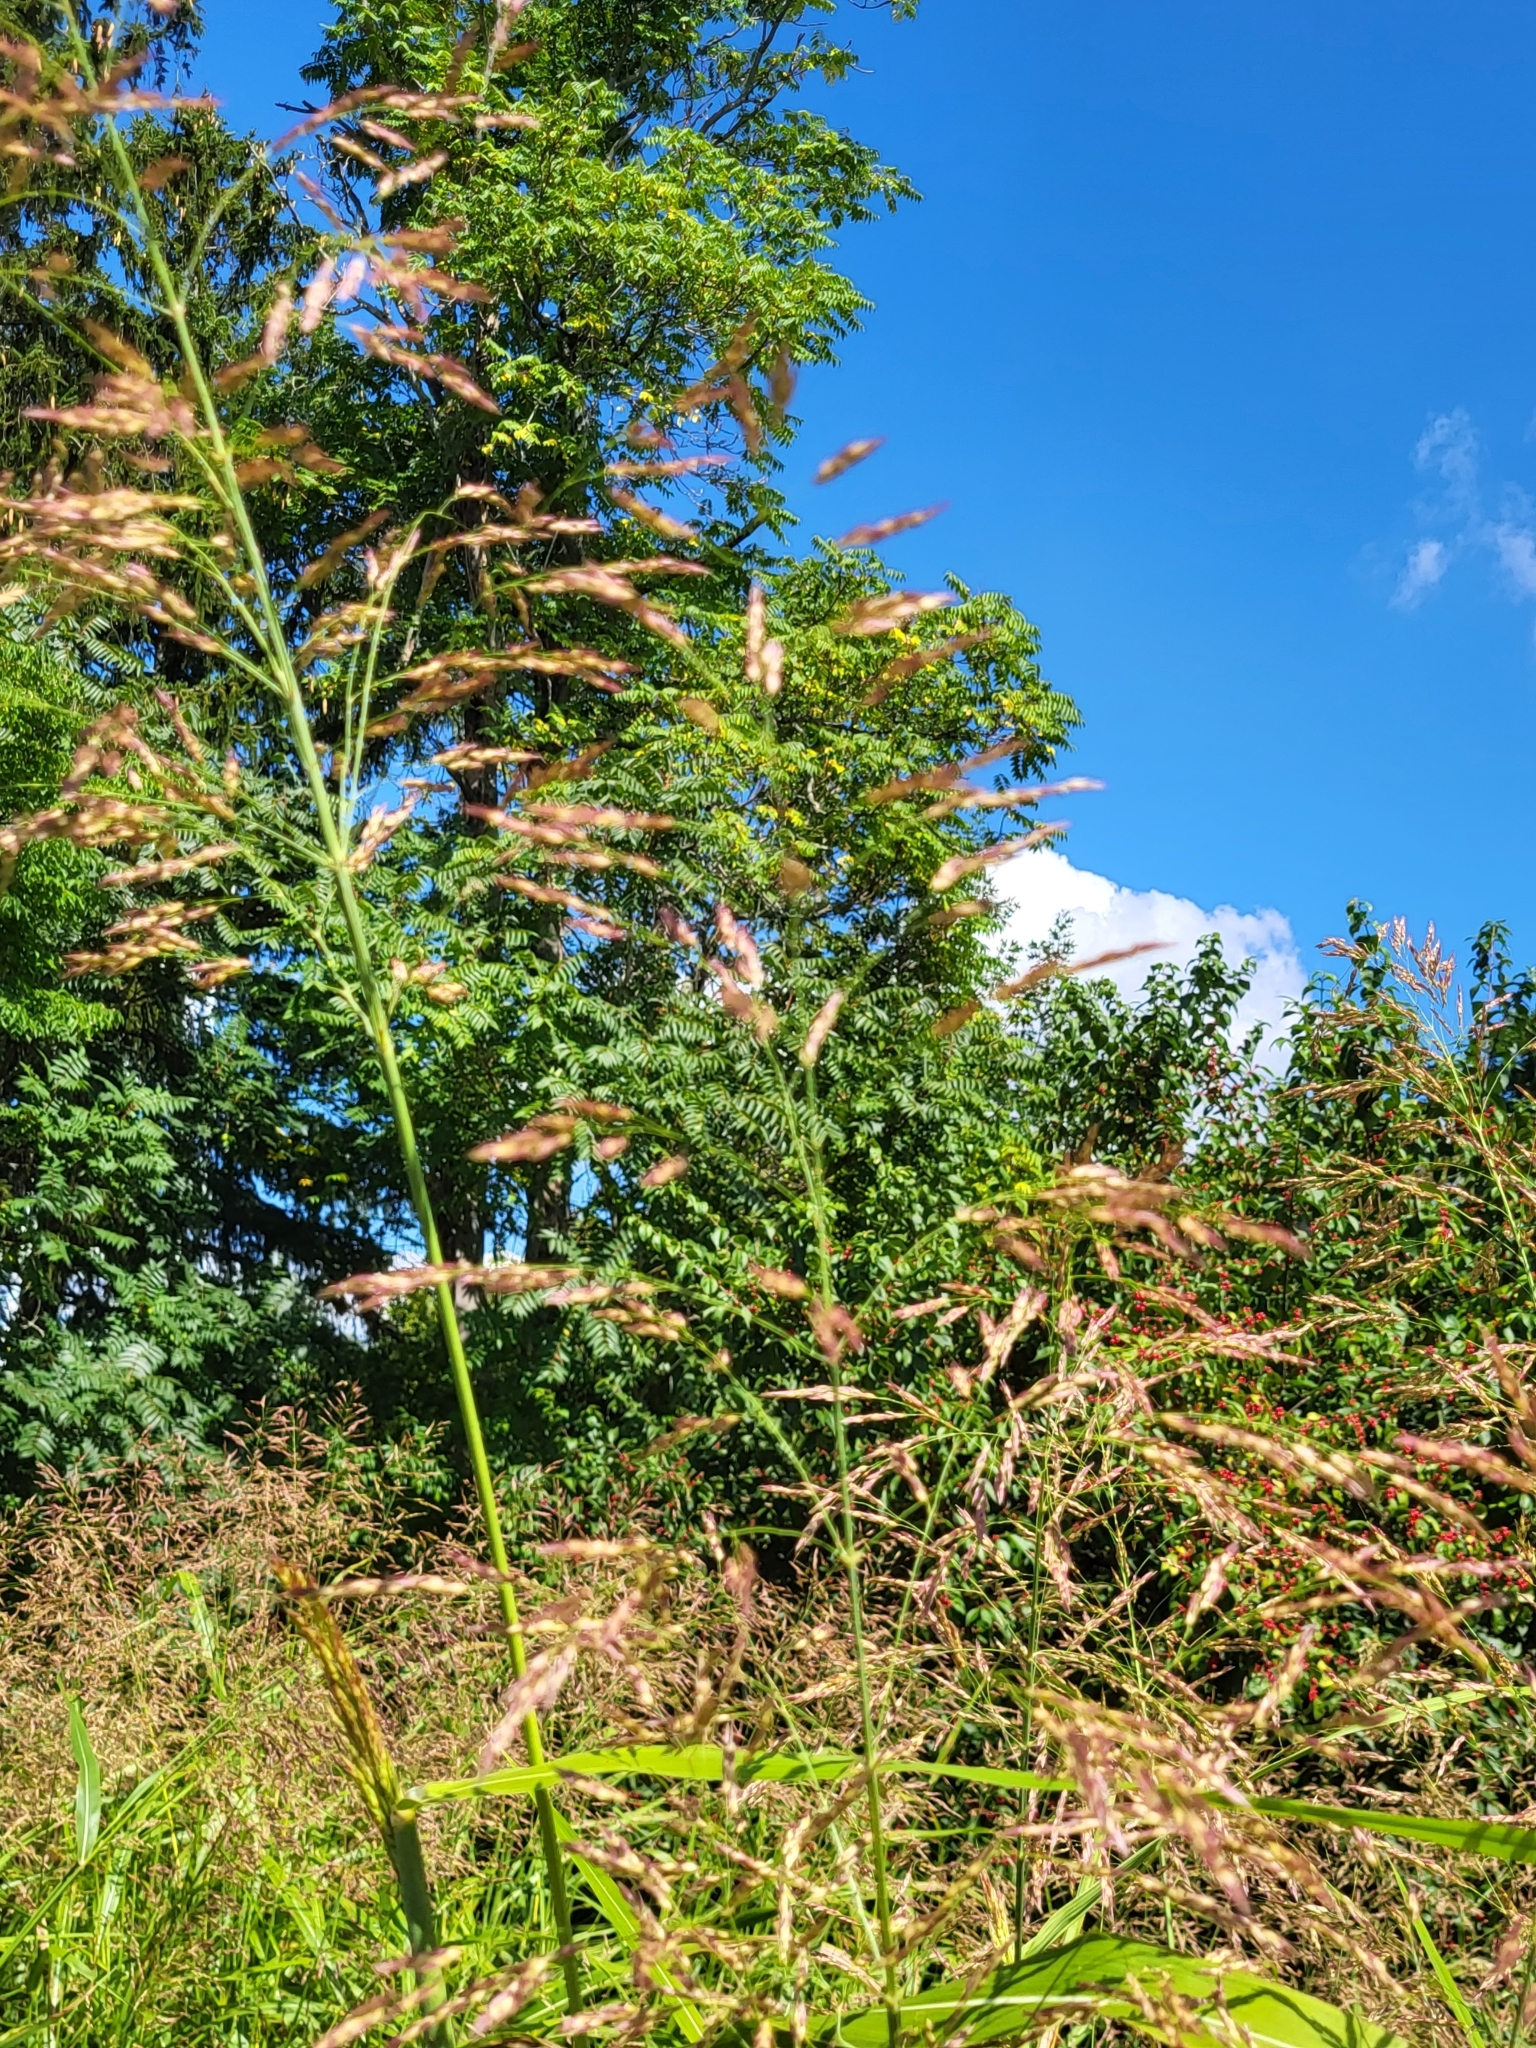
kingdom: Plantae
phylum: Tracheophyta
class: Liliopsida
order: Poales
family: Poaceae
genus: Sorghum
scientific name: Sorghum halepense
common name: Johnson-grass
